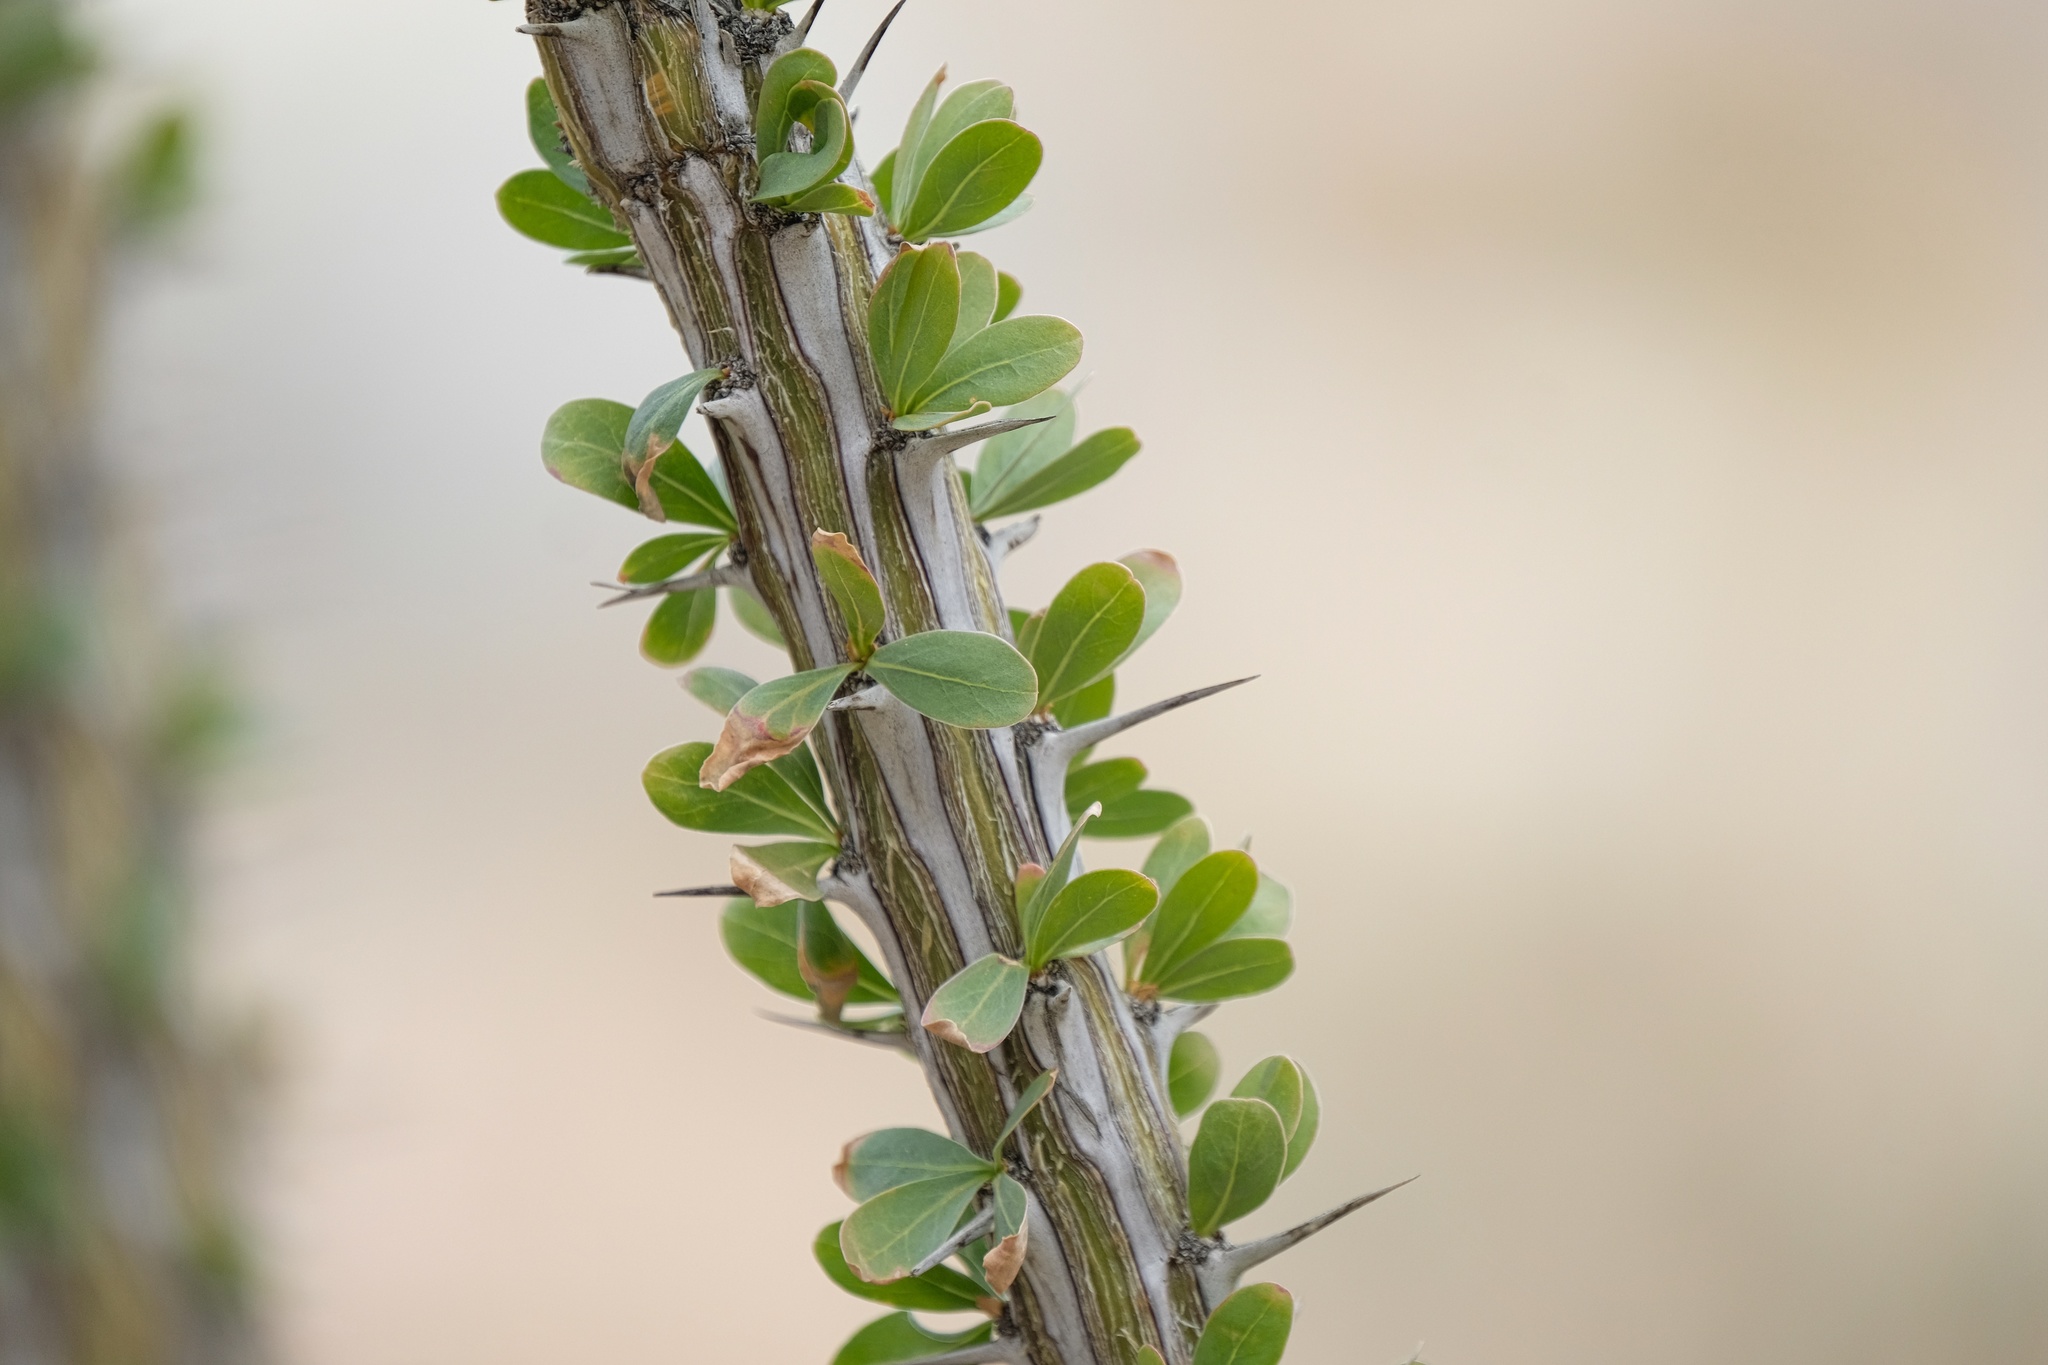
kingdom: Plantae
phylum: Tracheophyta
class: Magnoliopsida
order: Ericales
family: Fouquieriaceae
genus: Fouquieria
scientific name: Fouquieria splendens
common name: Vine-cactus
